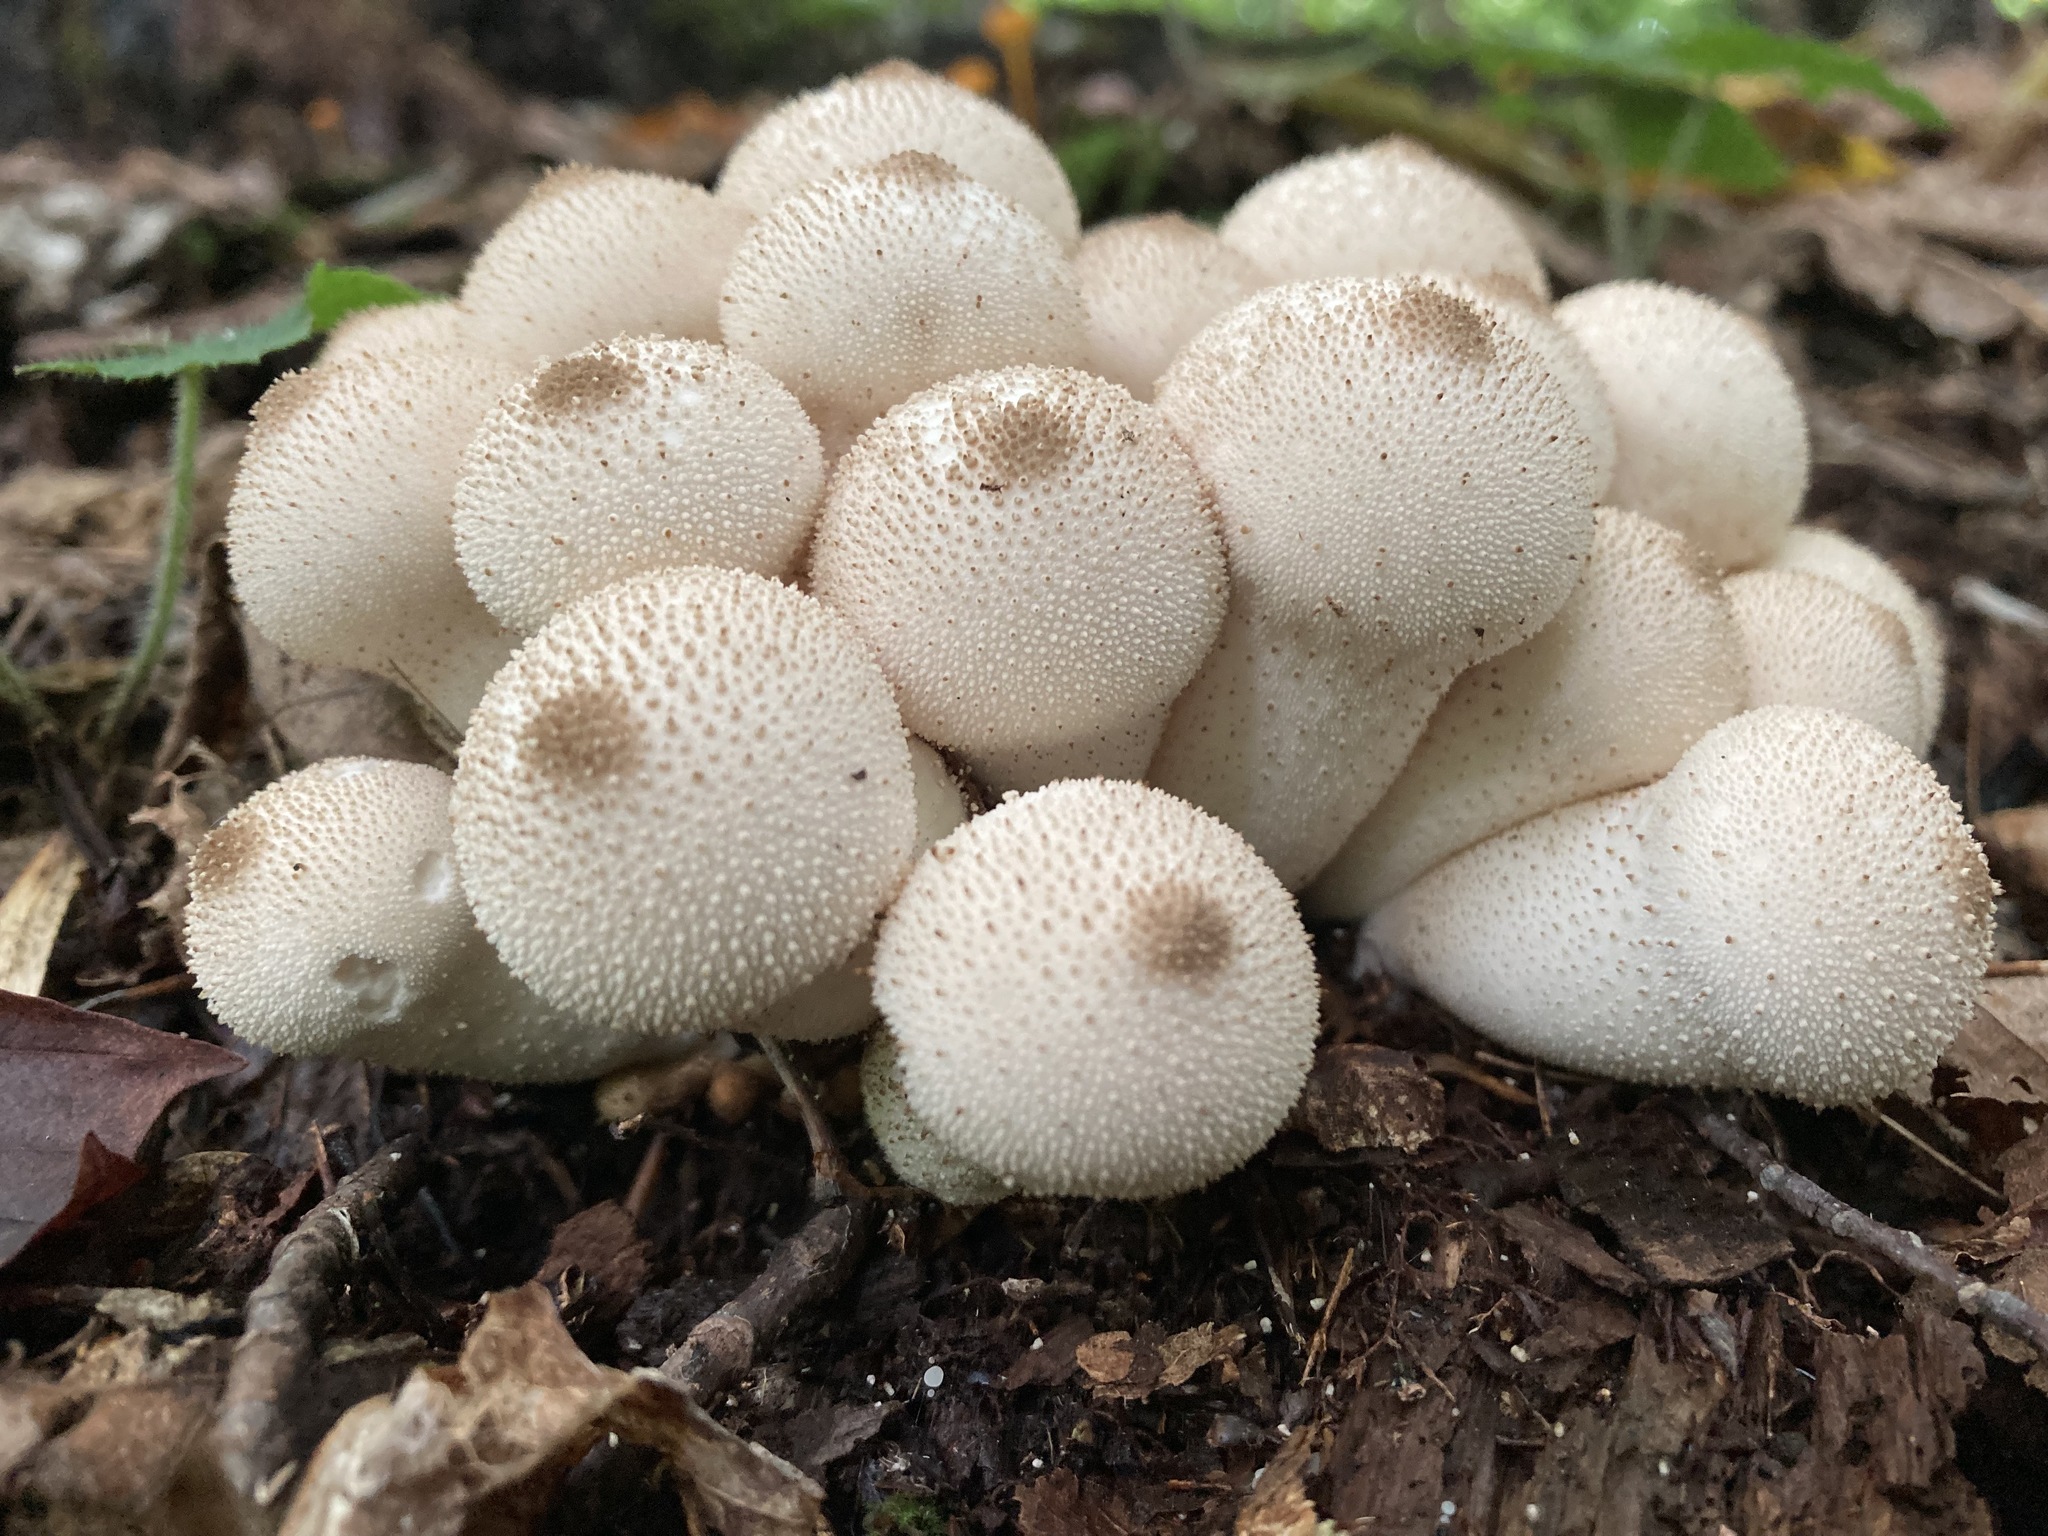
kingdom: Fungi
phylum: Basidiomycota
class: Agaricomycetes
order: Agaricales
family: Lycoperdaceae
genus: Lycoperdon
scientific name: Lycoperdon perlatum
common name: Common puffball
